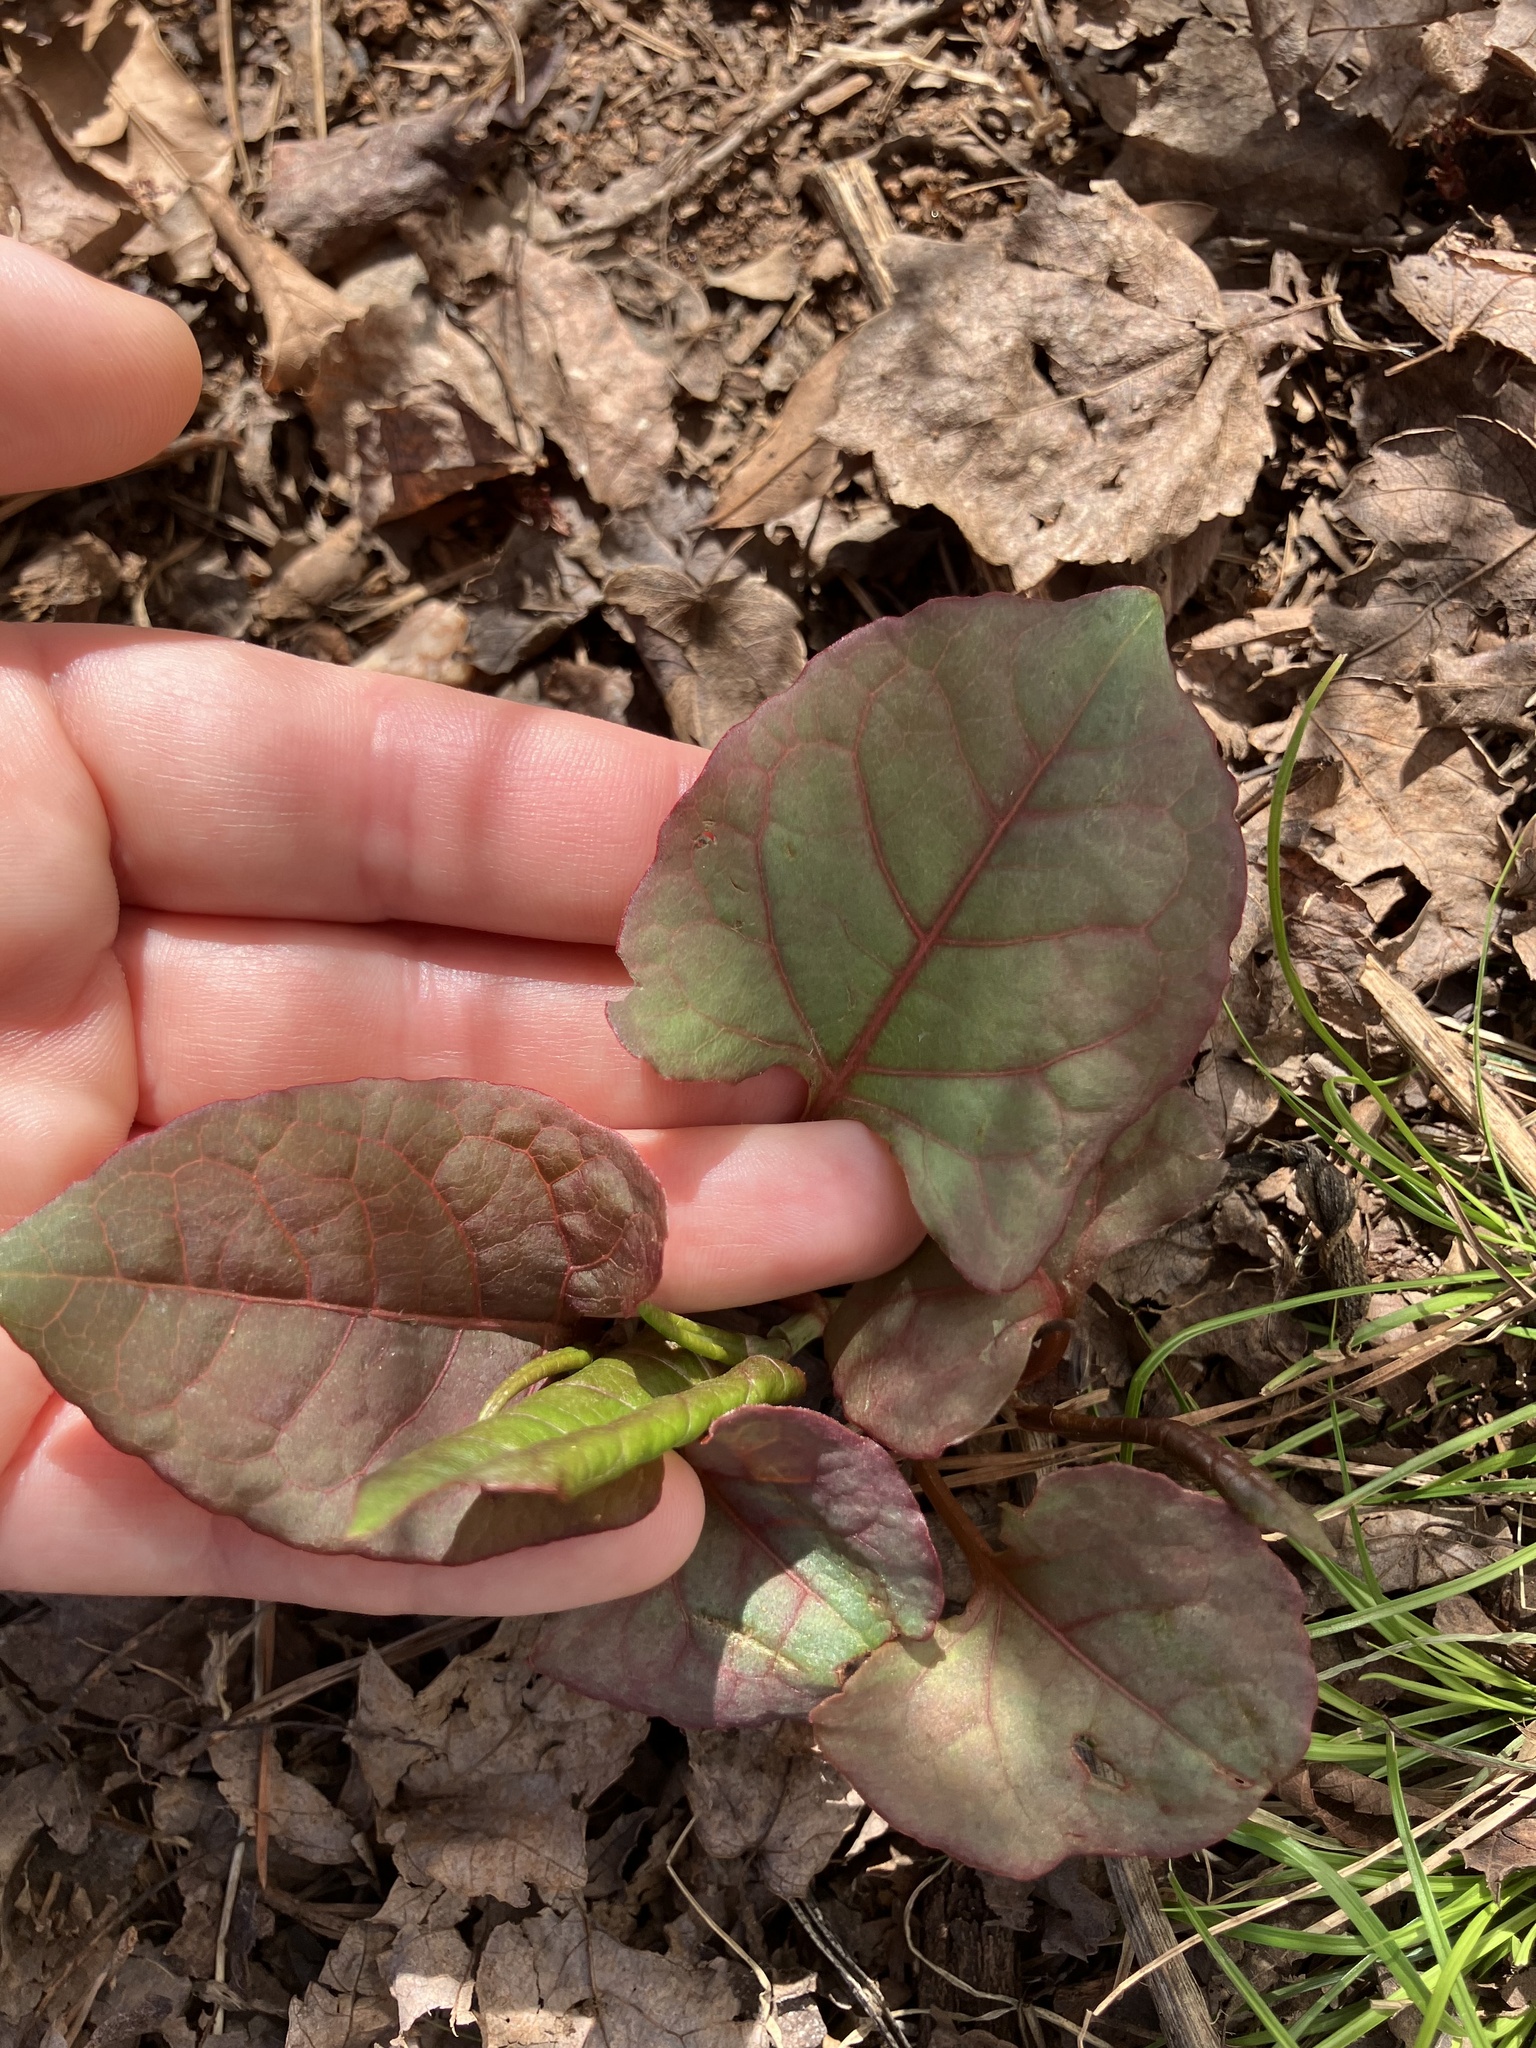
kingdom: Plantae
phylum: Tracheophyta
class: Magnoliopsida
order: Caryophyllales
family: Polygonaceae
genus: Reynoutria
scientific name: Reynoutria japonica
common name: Japanese knotweed
